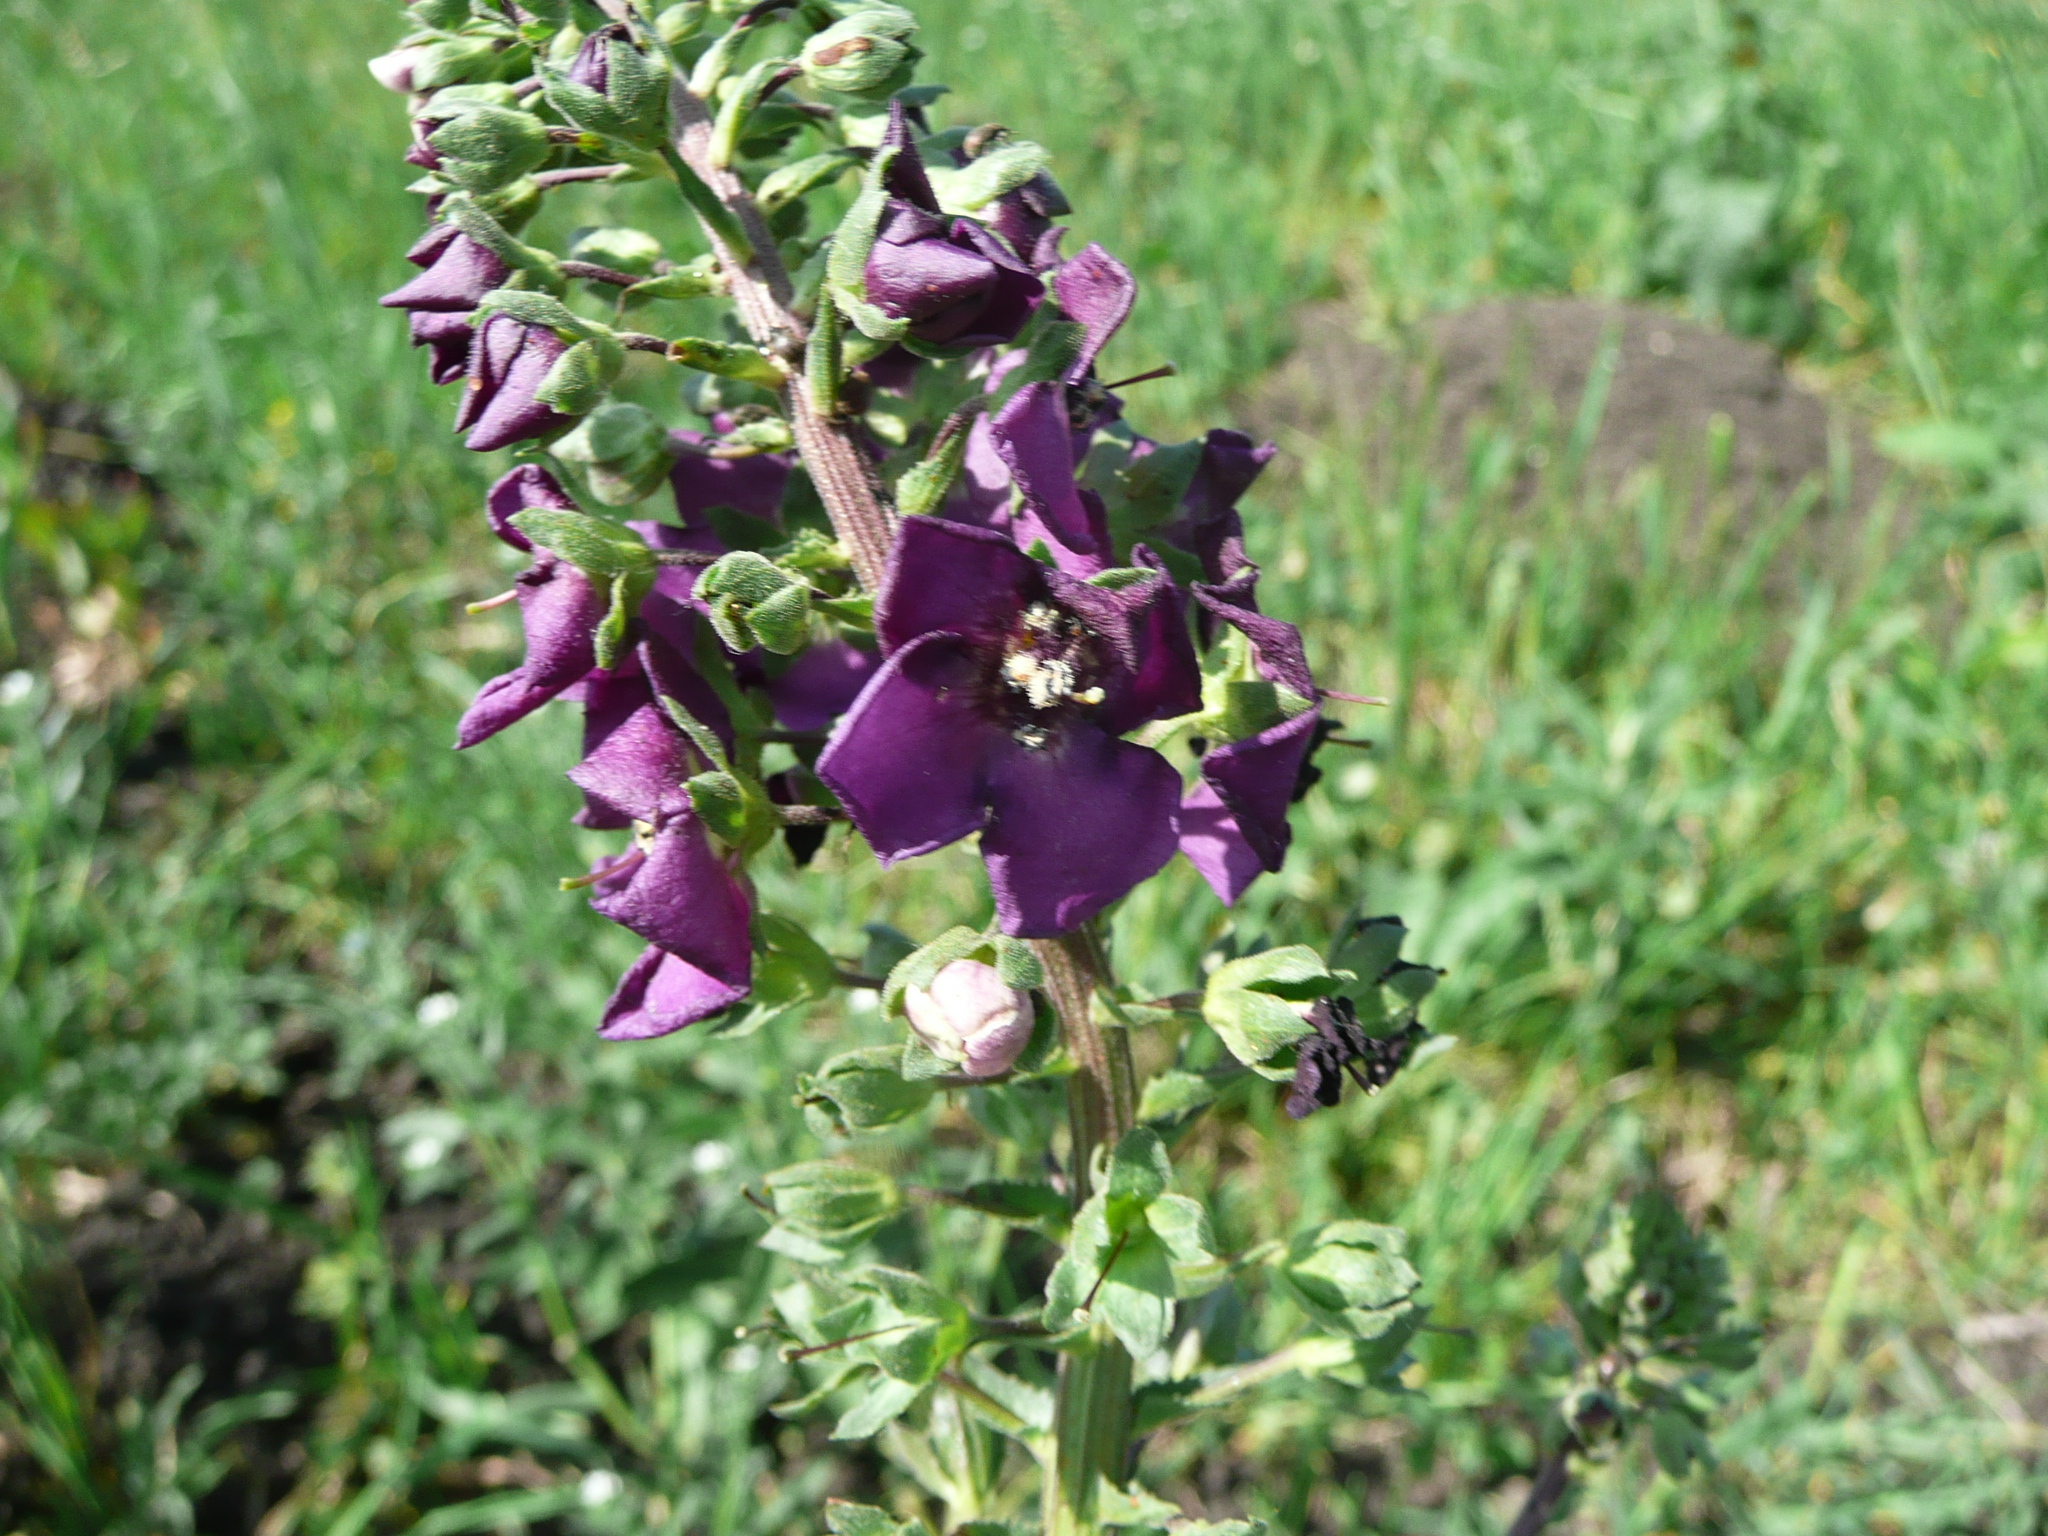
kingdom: Plantae
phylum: Tracheophyta
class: Magnoliopsida
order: Lamiales
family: Scrophulariaceae
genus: Verbascum
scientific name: Verbascum phoeniceum
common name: Purple mullein
